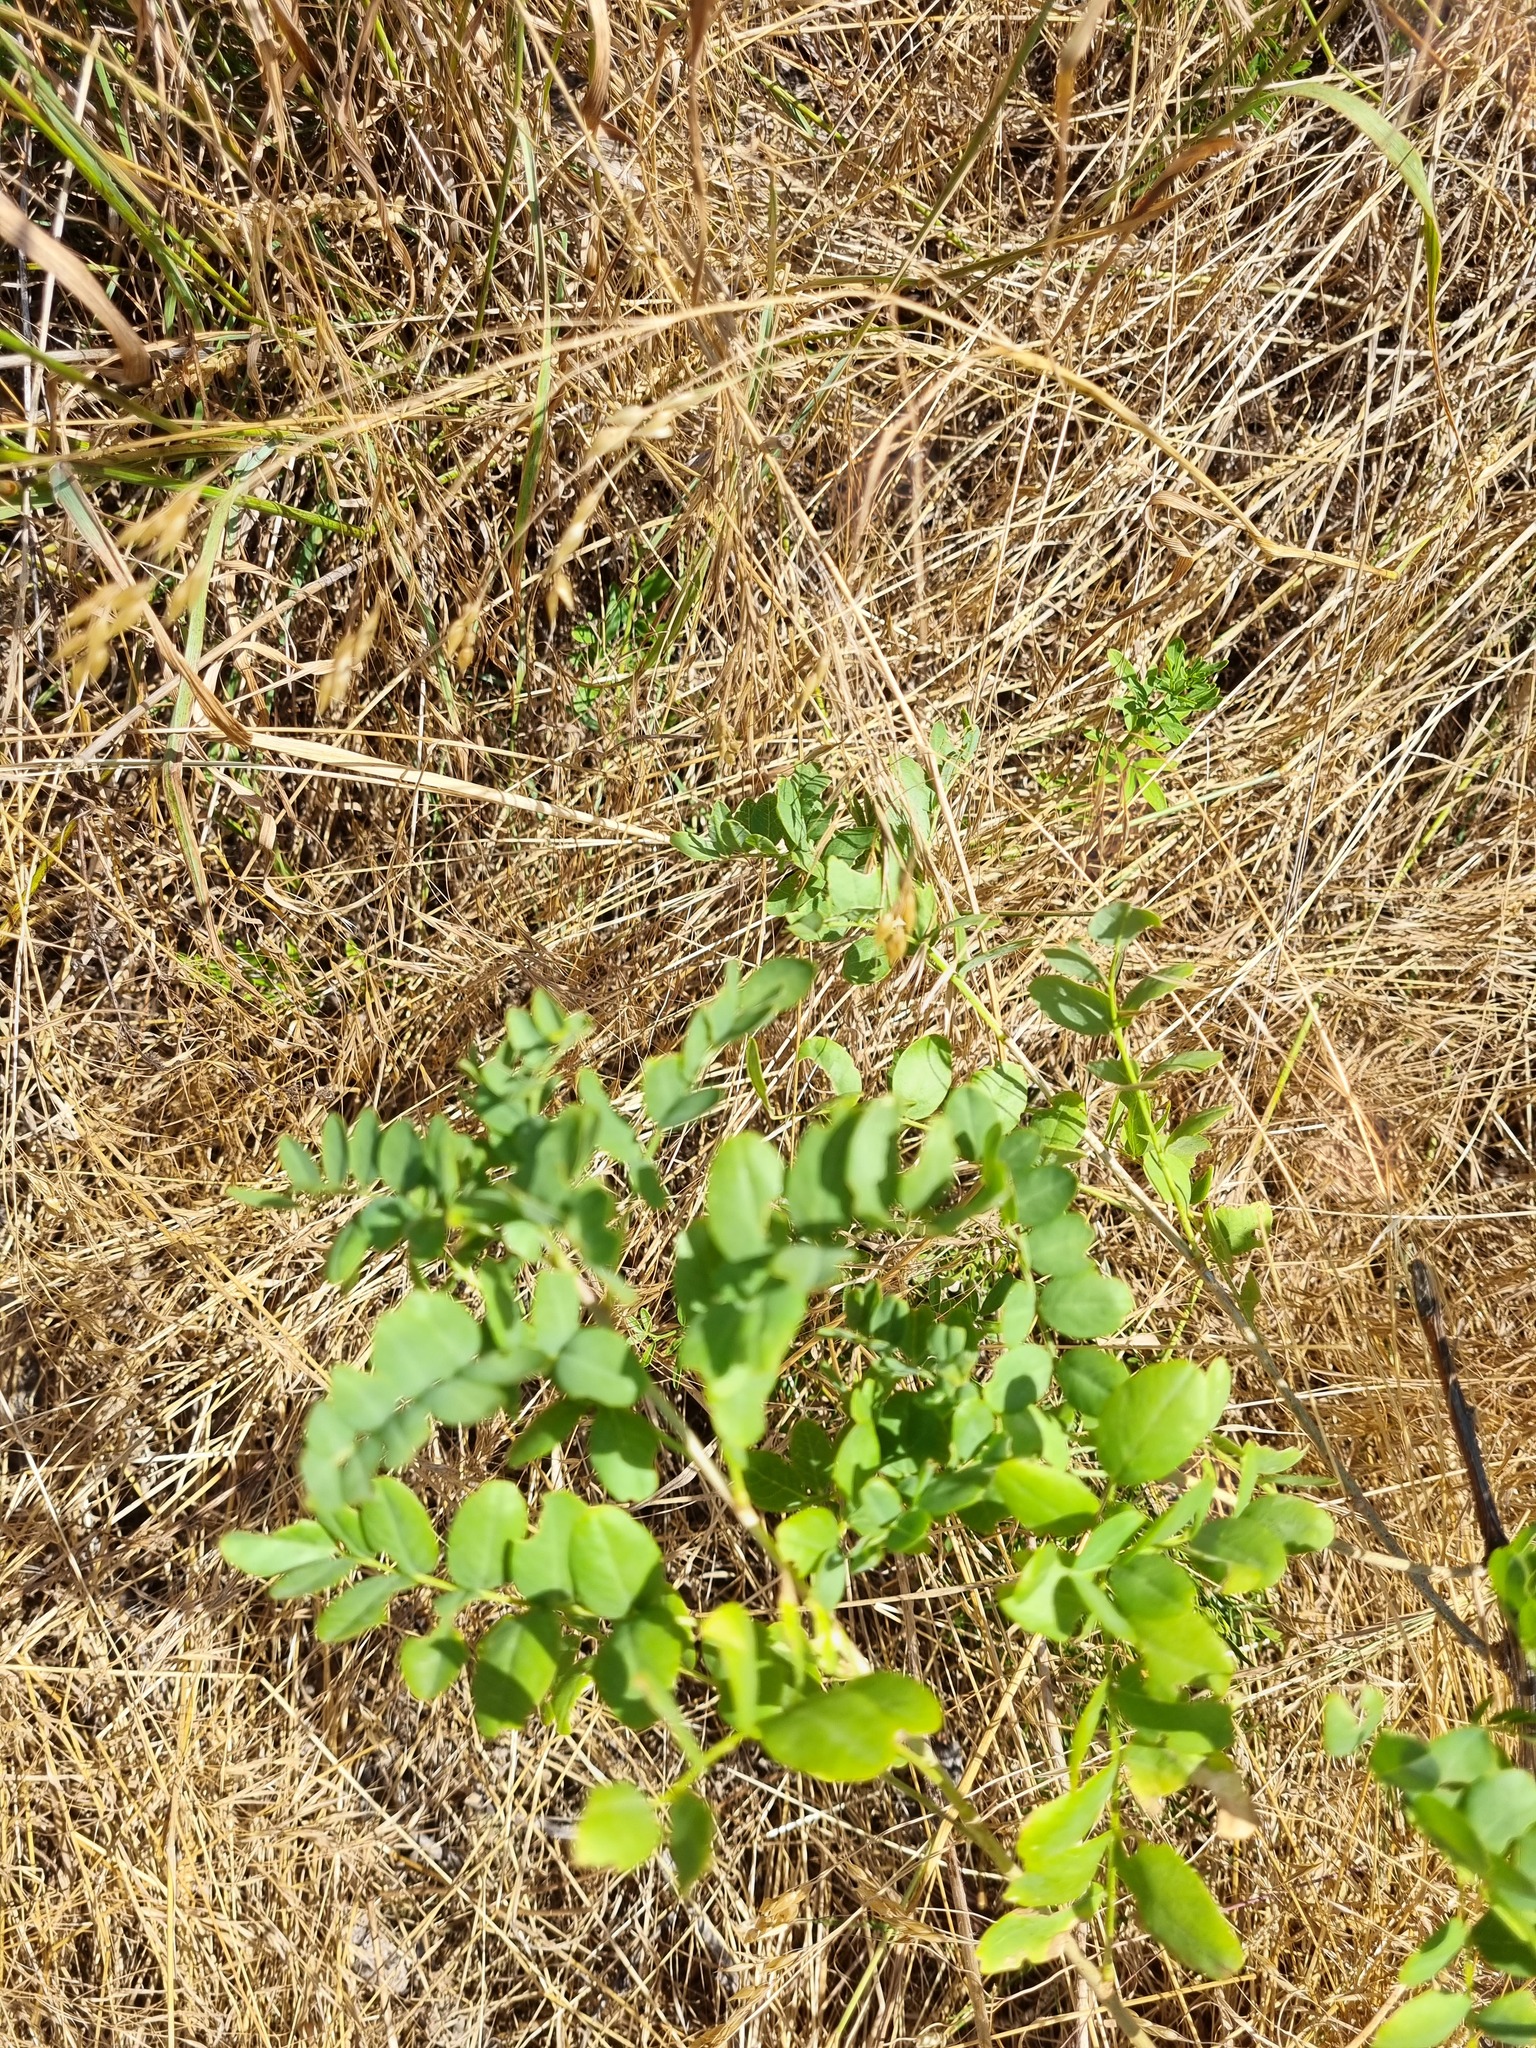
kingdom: Plantae
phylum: Tracheophyta
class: Magnoliopsida
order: Fabales
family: Fabaceae
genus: Astragalus
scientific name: Astragalus glycyphyllos
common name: Wild liquorice
